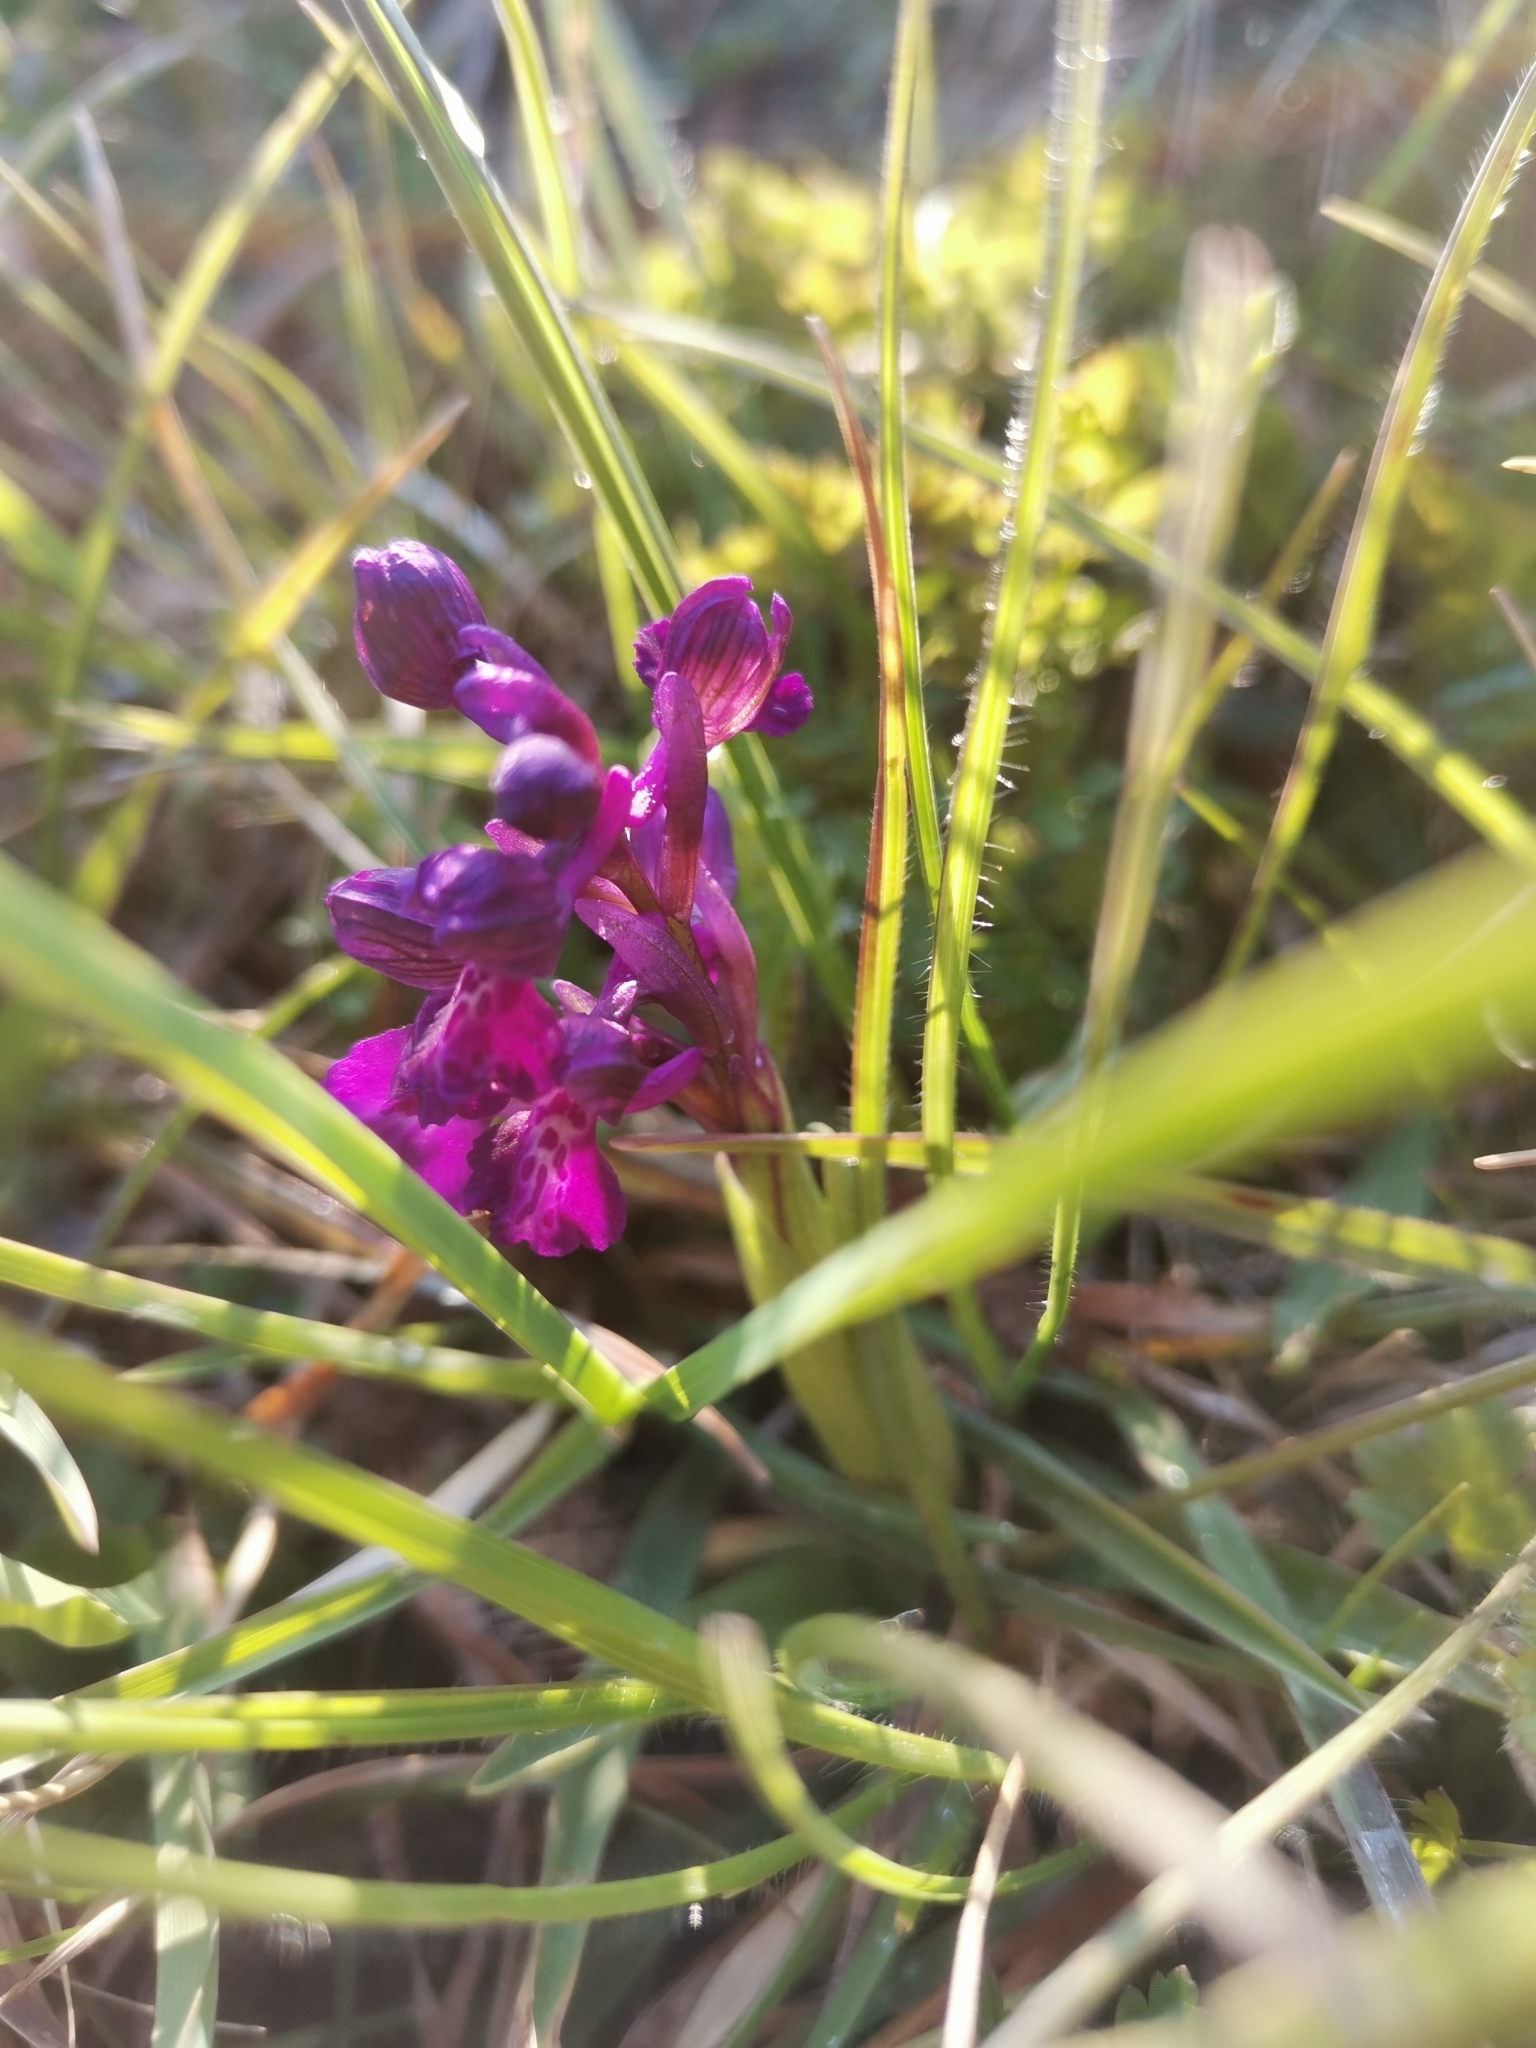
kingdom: Plantae
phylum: Tracheophyta
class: Liliopsida
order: Asparagales
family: Orchidaceae
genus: Anacamptis
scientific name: Anacamptis morio
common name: Green-winged orchid
